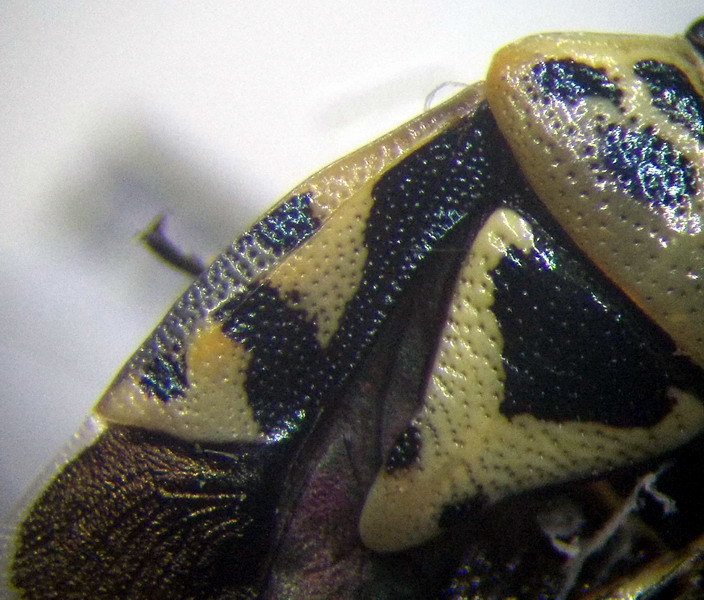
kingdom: Animalia
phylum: Arthropoda
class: Insecta
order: Hemiptera
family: Pentatomidae
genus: Eurydema
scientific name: Eurydema ornata
